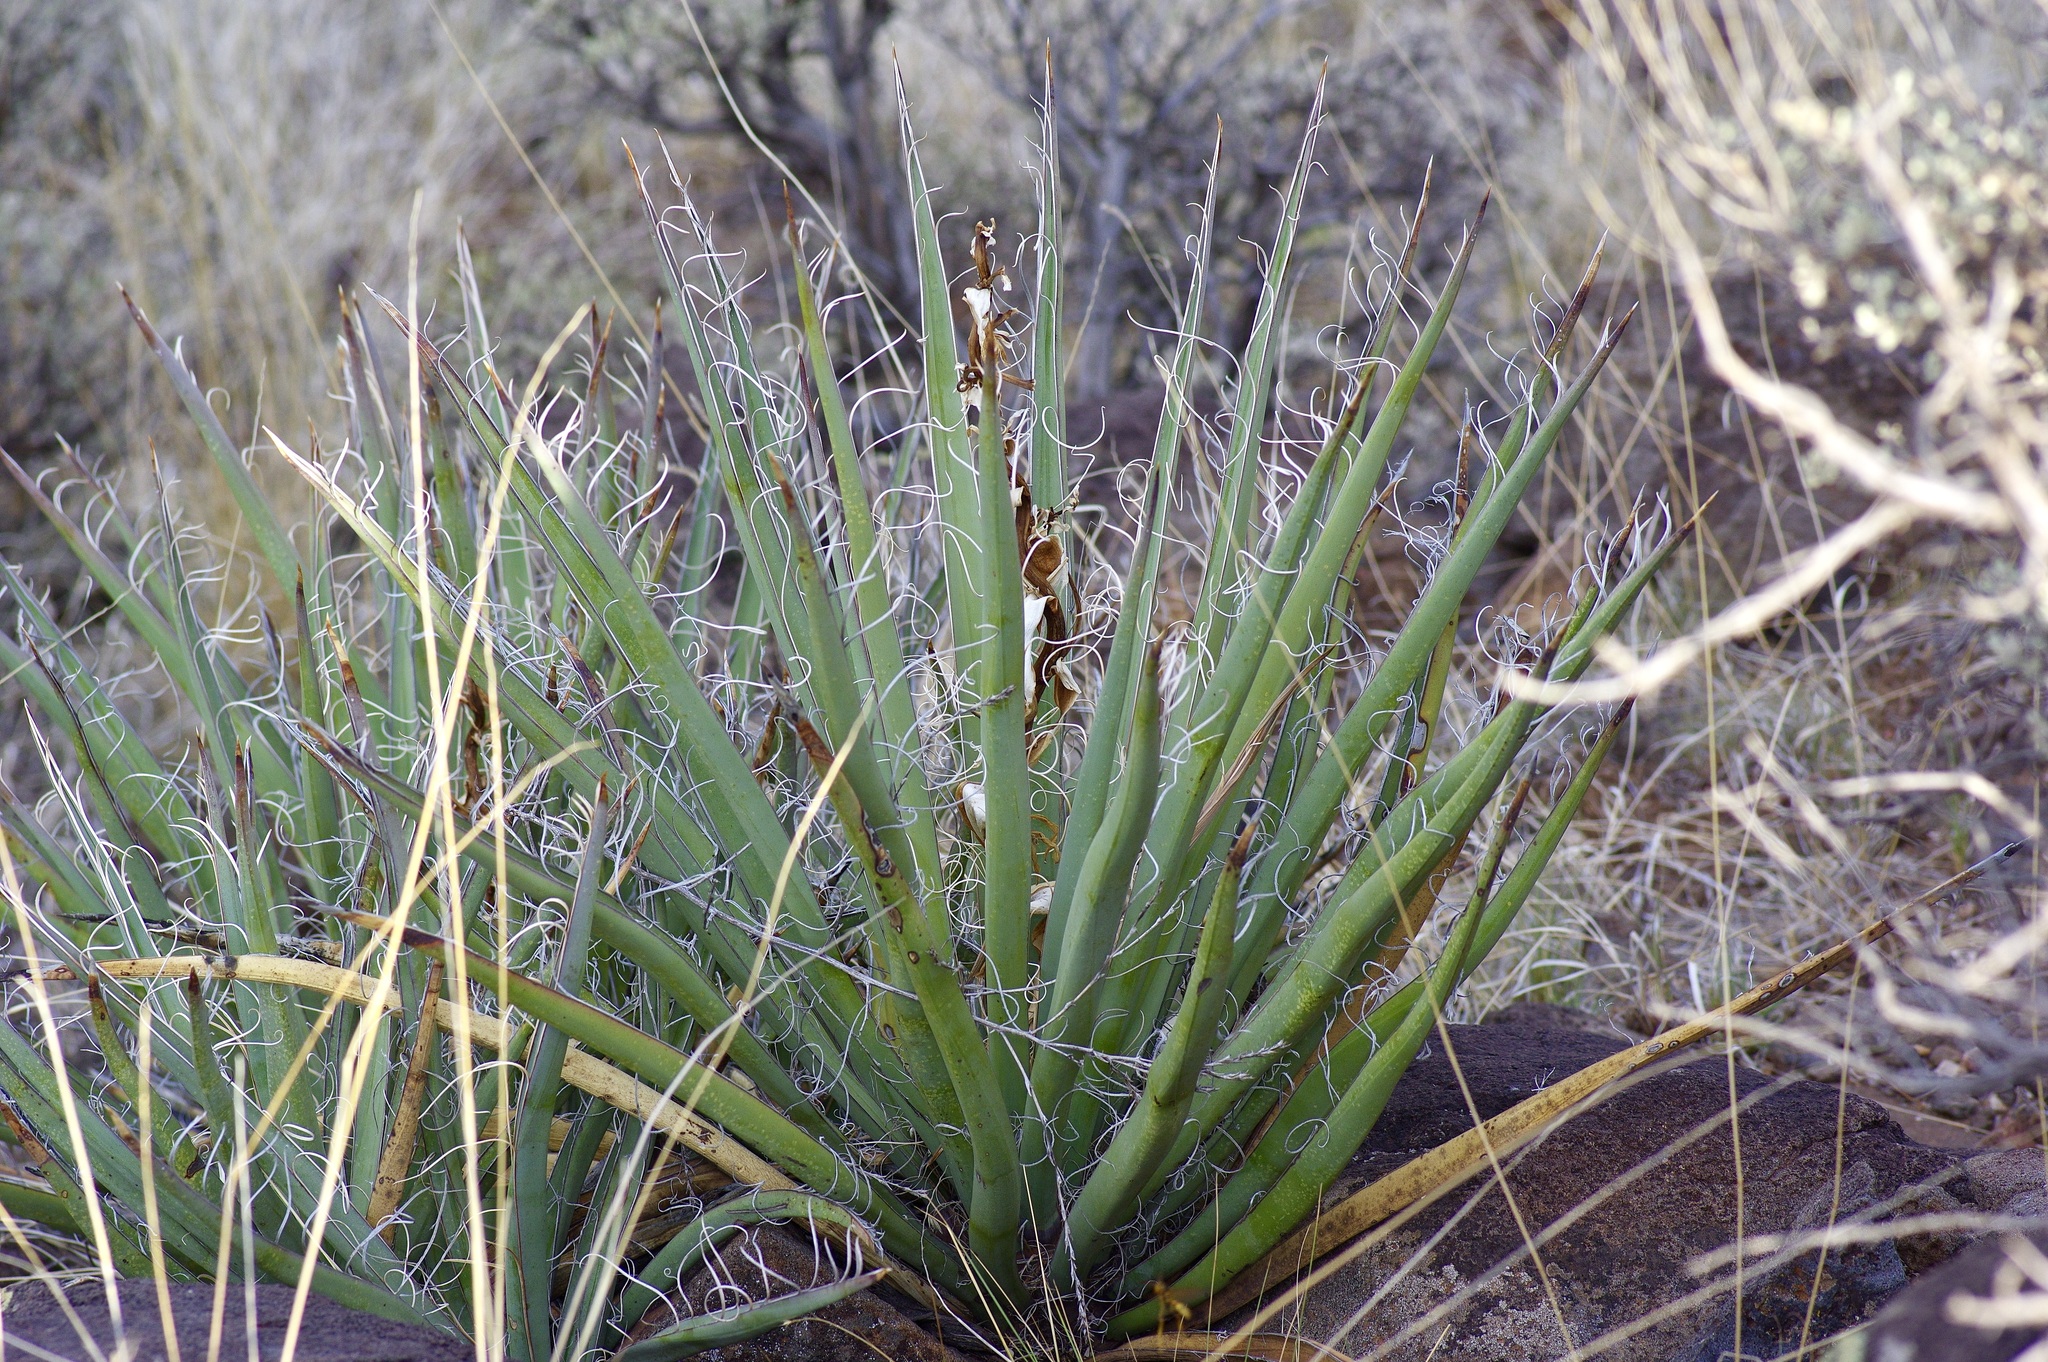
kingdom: Plantae
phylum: Tracheophyta
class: Liliopsida
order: Asparagales
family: Asparagaceae
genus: Yucca
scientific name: Yucca baccata
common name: Banana yucca
